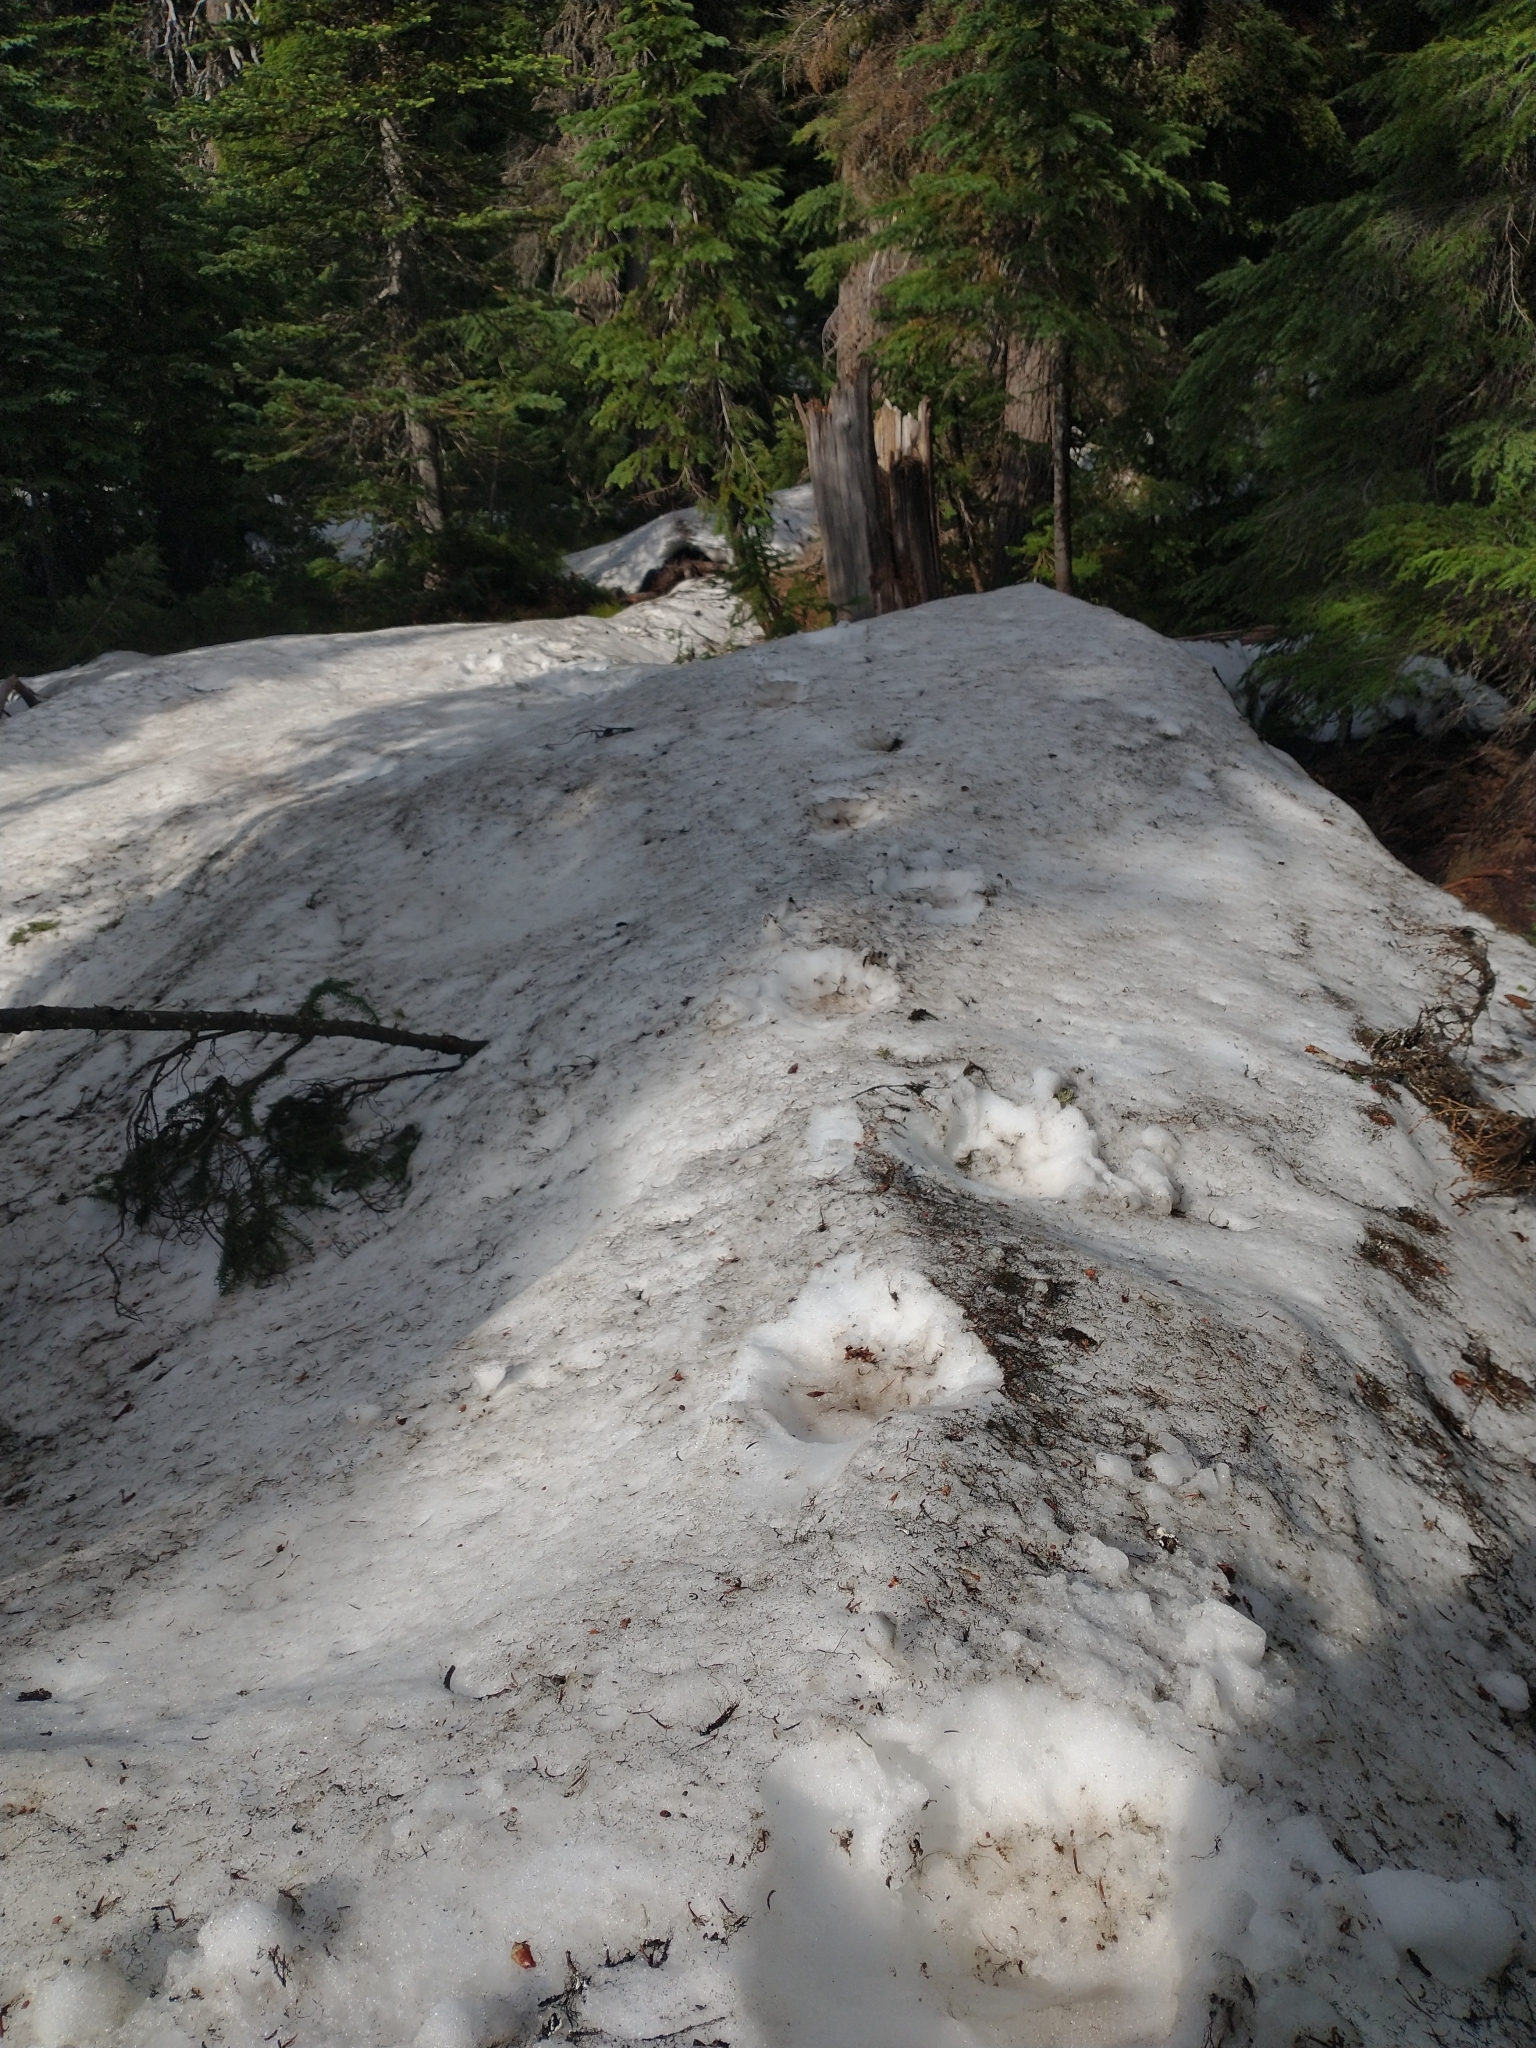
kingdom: Animalia
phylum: Chordata
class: Mammalia
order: Carnivora
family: Ursidae
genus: Ursus
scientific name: Ursus americanus
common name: American black bear
